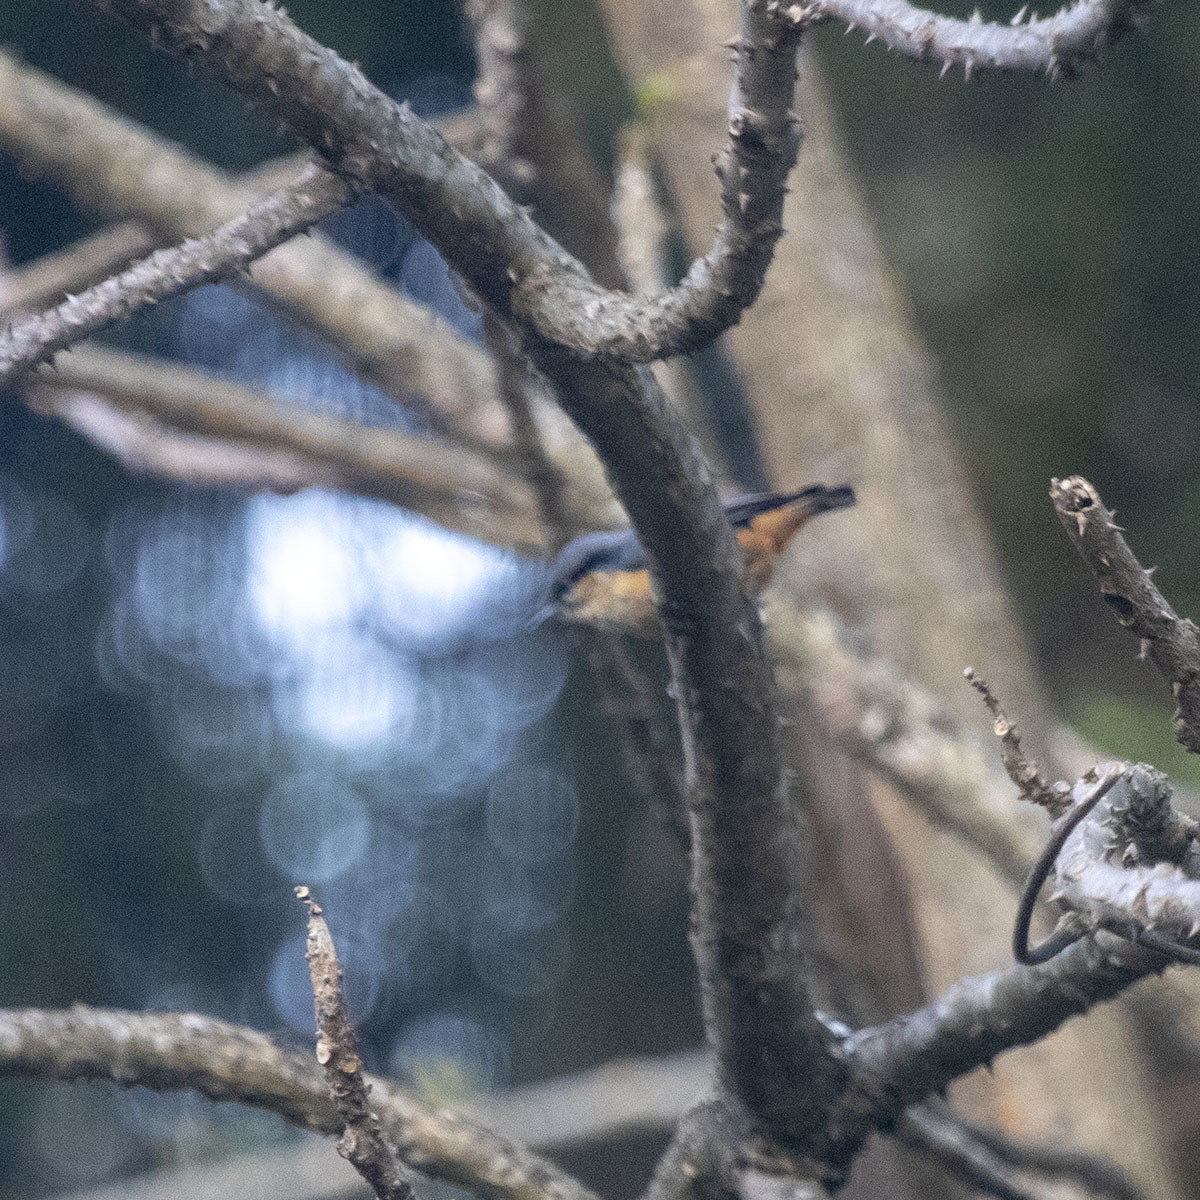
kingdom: Animalia
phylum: Chordata
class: Aves
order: Passeriformes
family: Sittidae
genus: Sitta
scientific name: Sitta himalayensis
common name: White-tailed nuthatch
